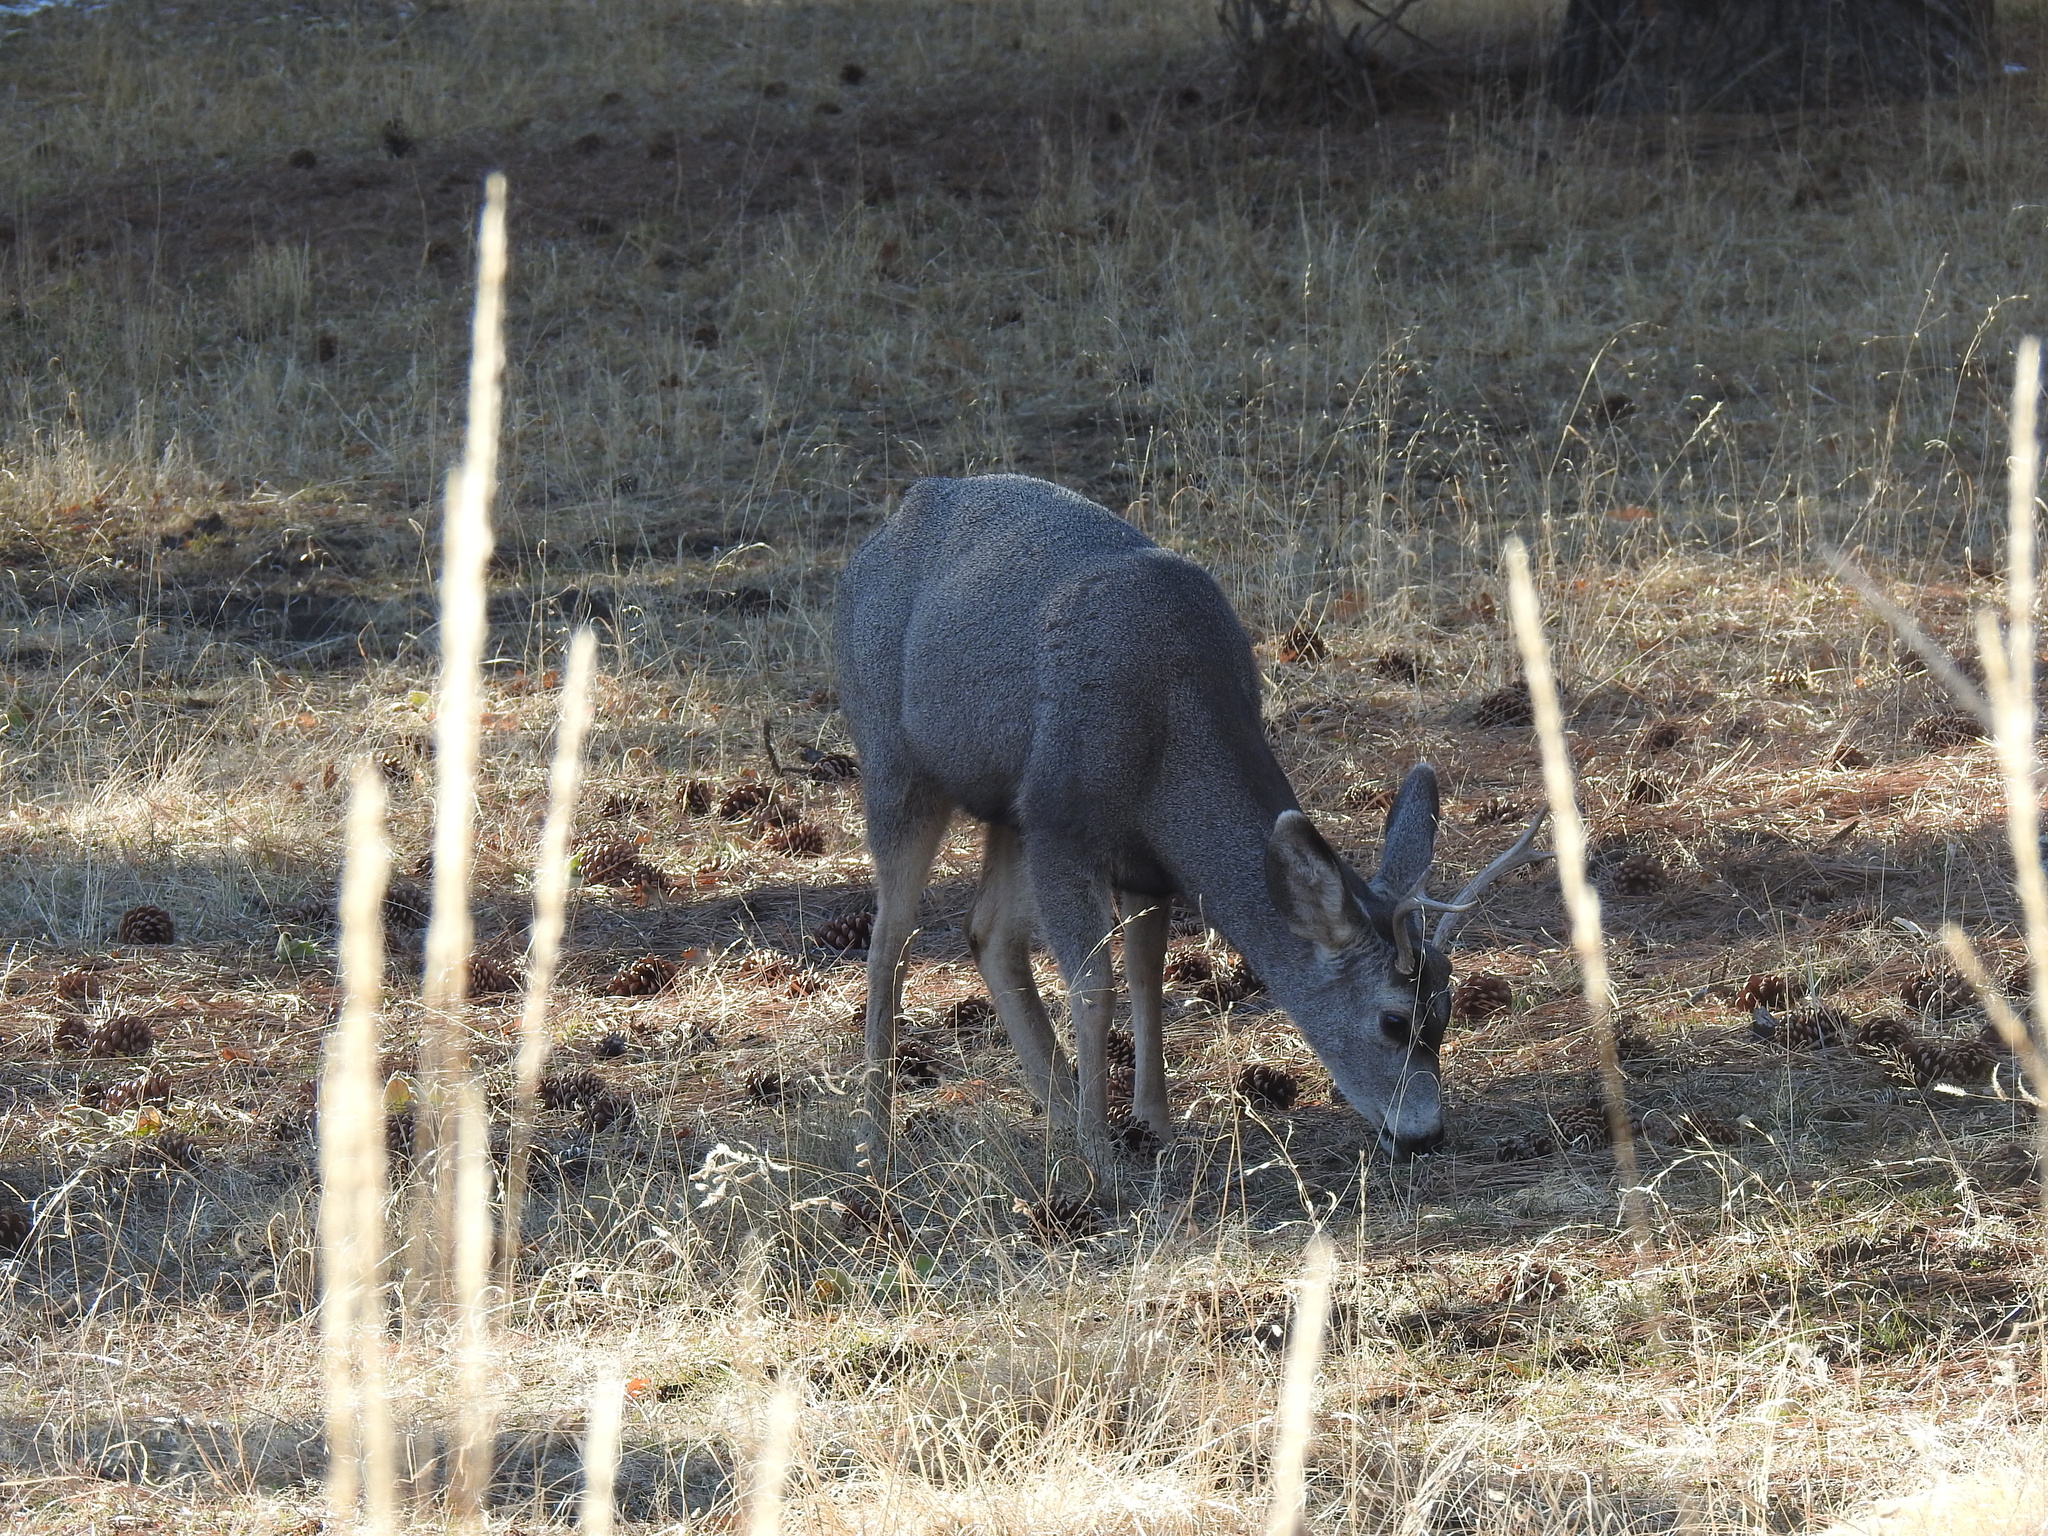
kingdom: Animalia
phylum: Chordata
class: Mammalia
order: Artiodactyla
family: Cervidae
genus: Odocoileus
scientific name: Odocoileus hemionus
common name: Mule deer
